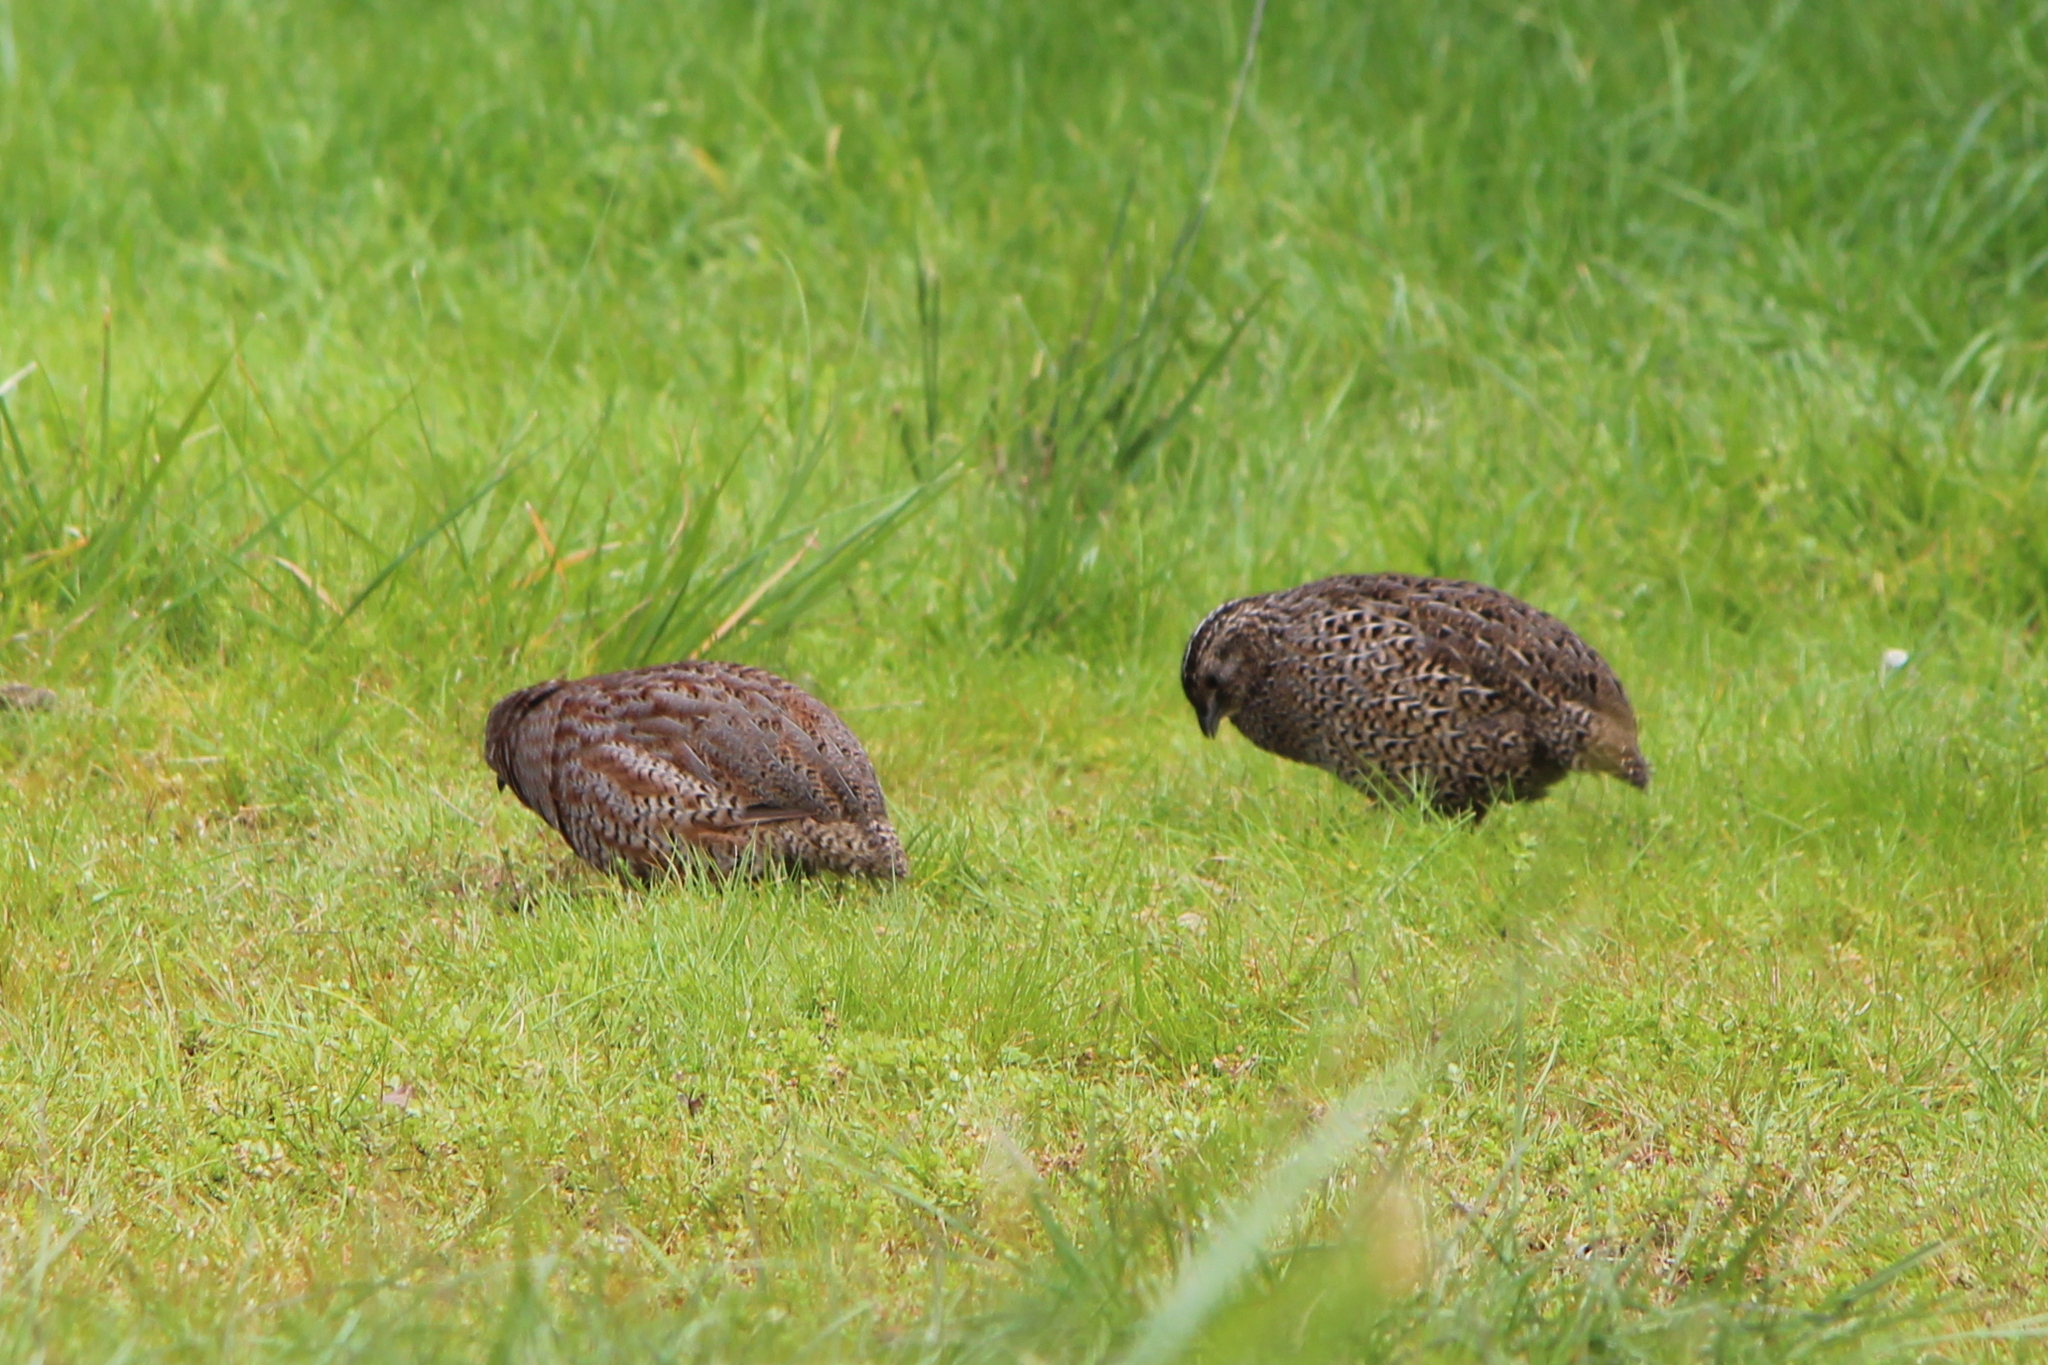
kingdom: Animalia
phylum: Chordata
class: Aves
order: Galliformes
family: Phasianidae
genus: Synoicus
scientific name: Synoicus ypsilophorus
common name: Brown quail
